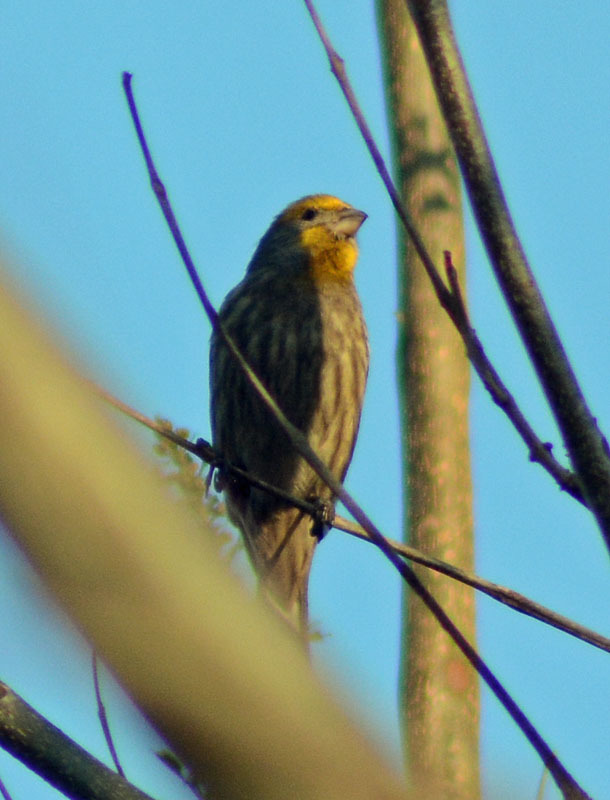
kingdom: Animalia
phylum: Chordata
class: Aves
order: Passeriformes
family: Fringillidae
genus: Haemorhous
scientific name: Haemorhous mexicanus
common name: House finch
